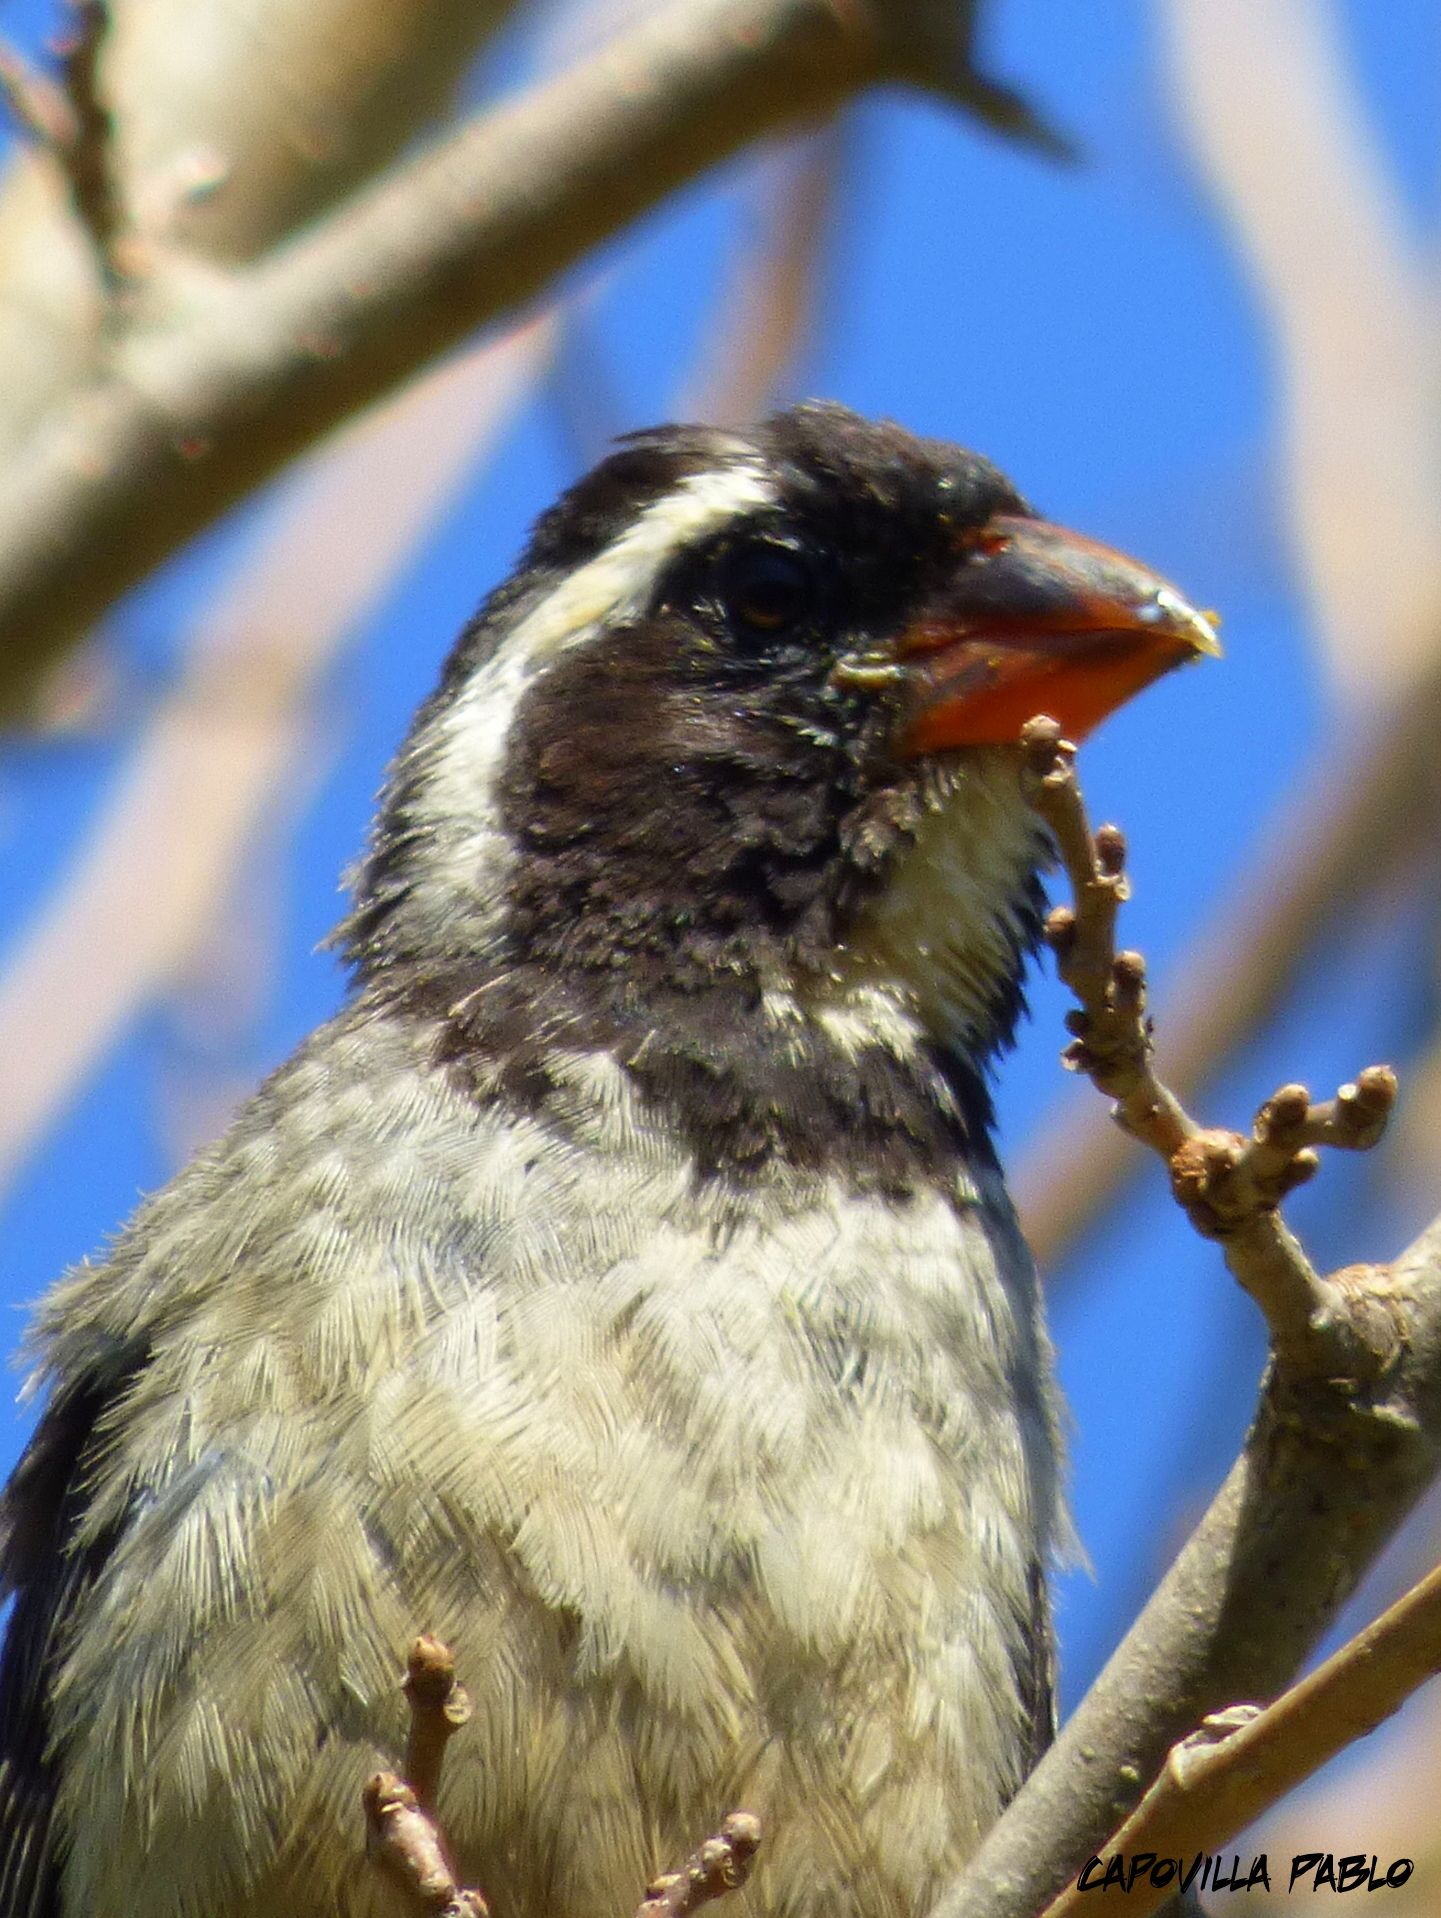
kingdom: Animalia
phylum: Chordata
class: Aves
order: Passeriformes
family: Thraupidae
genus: Saltator
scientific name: Saltator aurantiirostris
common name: Golden-billed saltator
